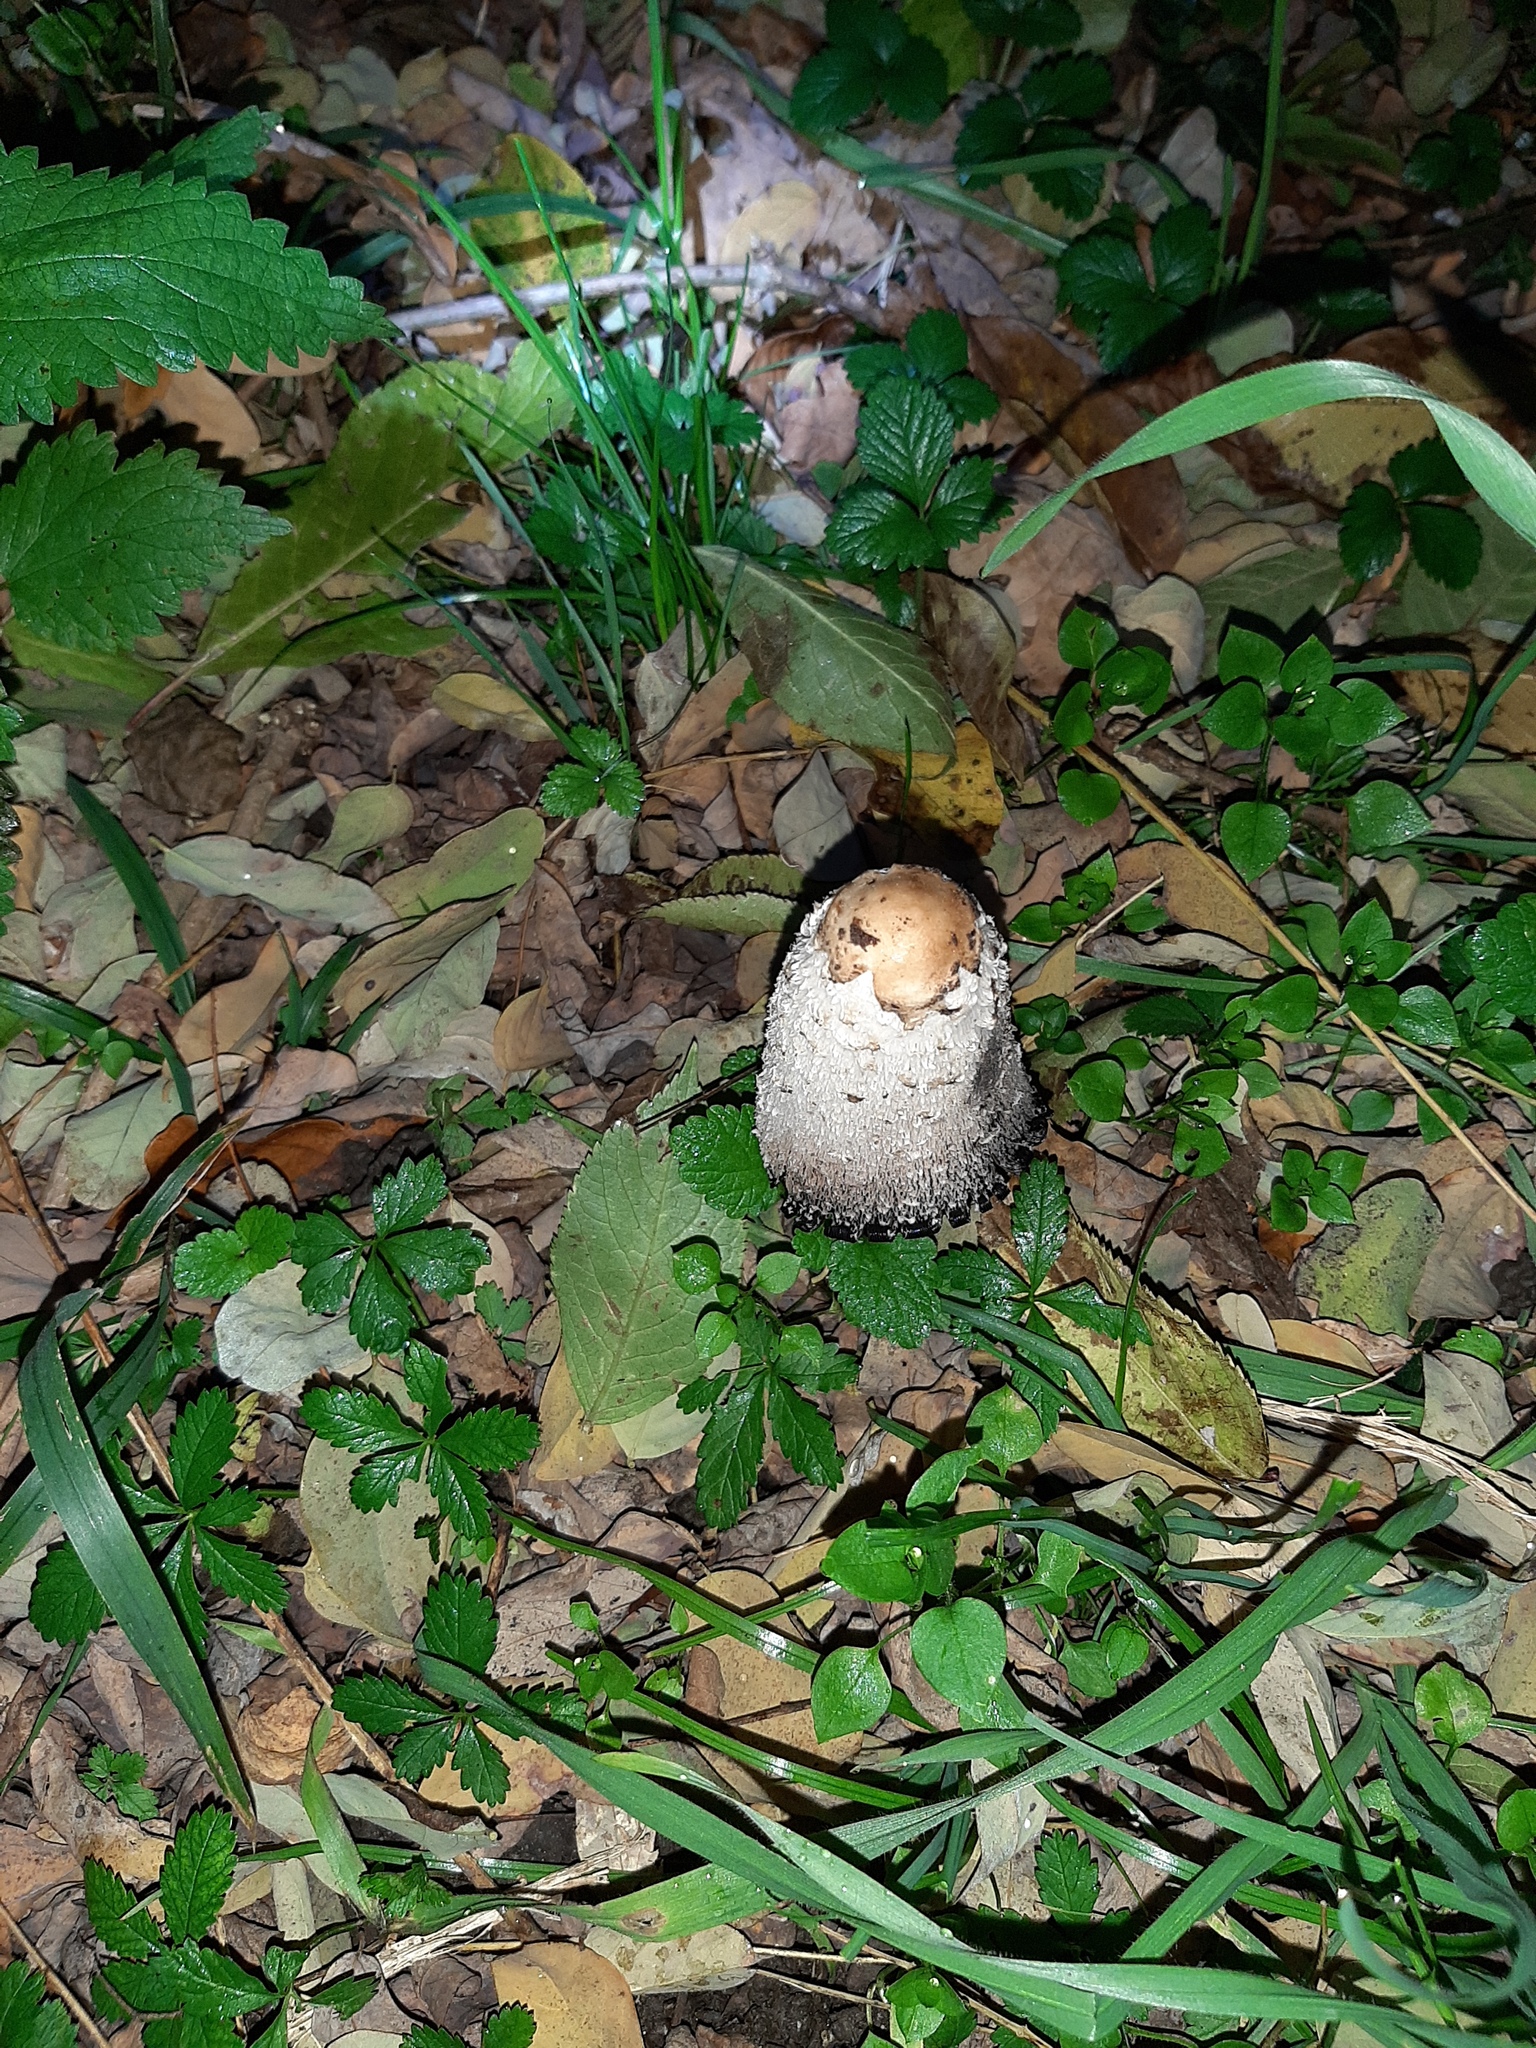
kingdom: Fungi
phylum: Basidiomycota
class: Agaricomycetes
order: Agaricales
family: Agaricaceae
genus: Coprinus
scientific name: Coprinus comatus
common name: Lawyer's wig
